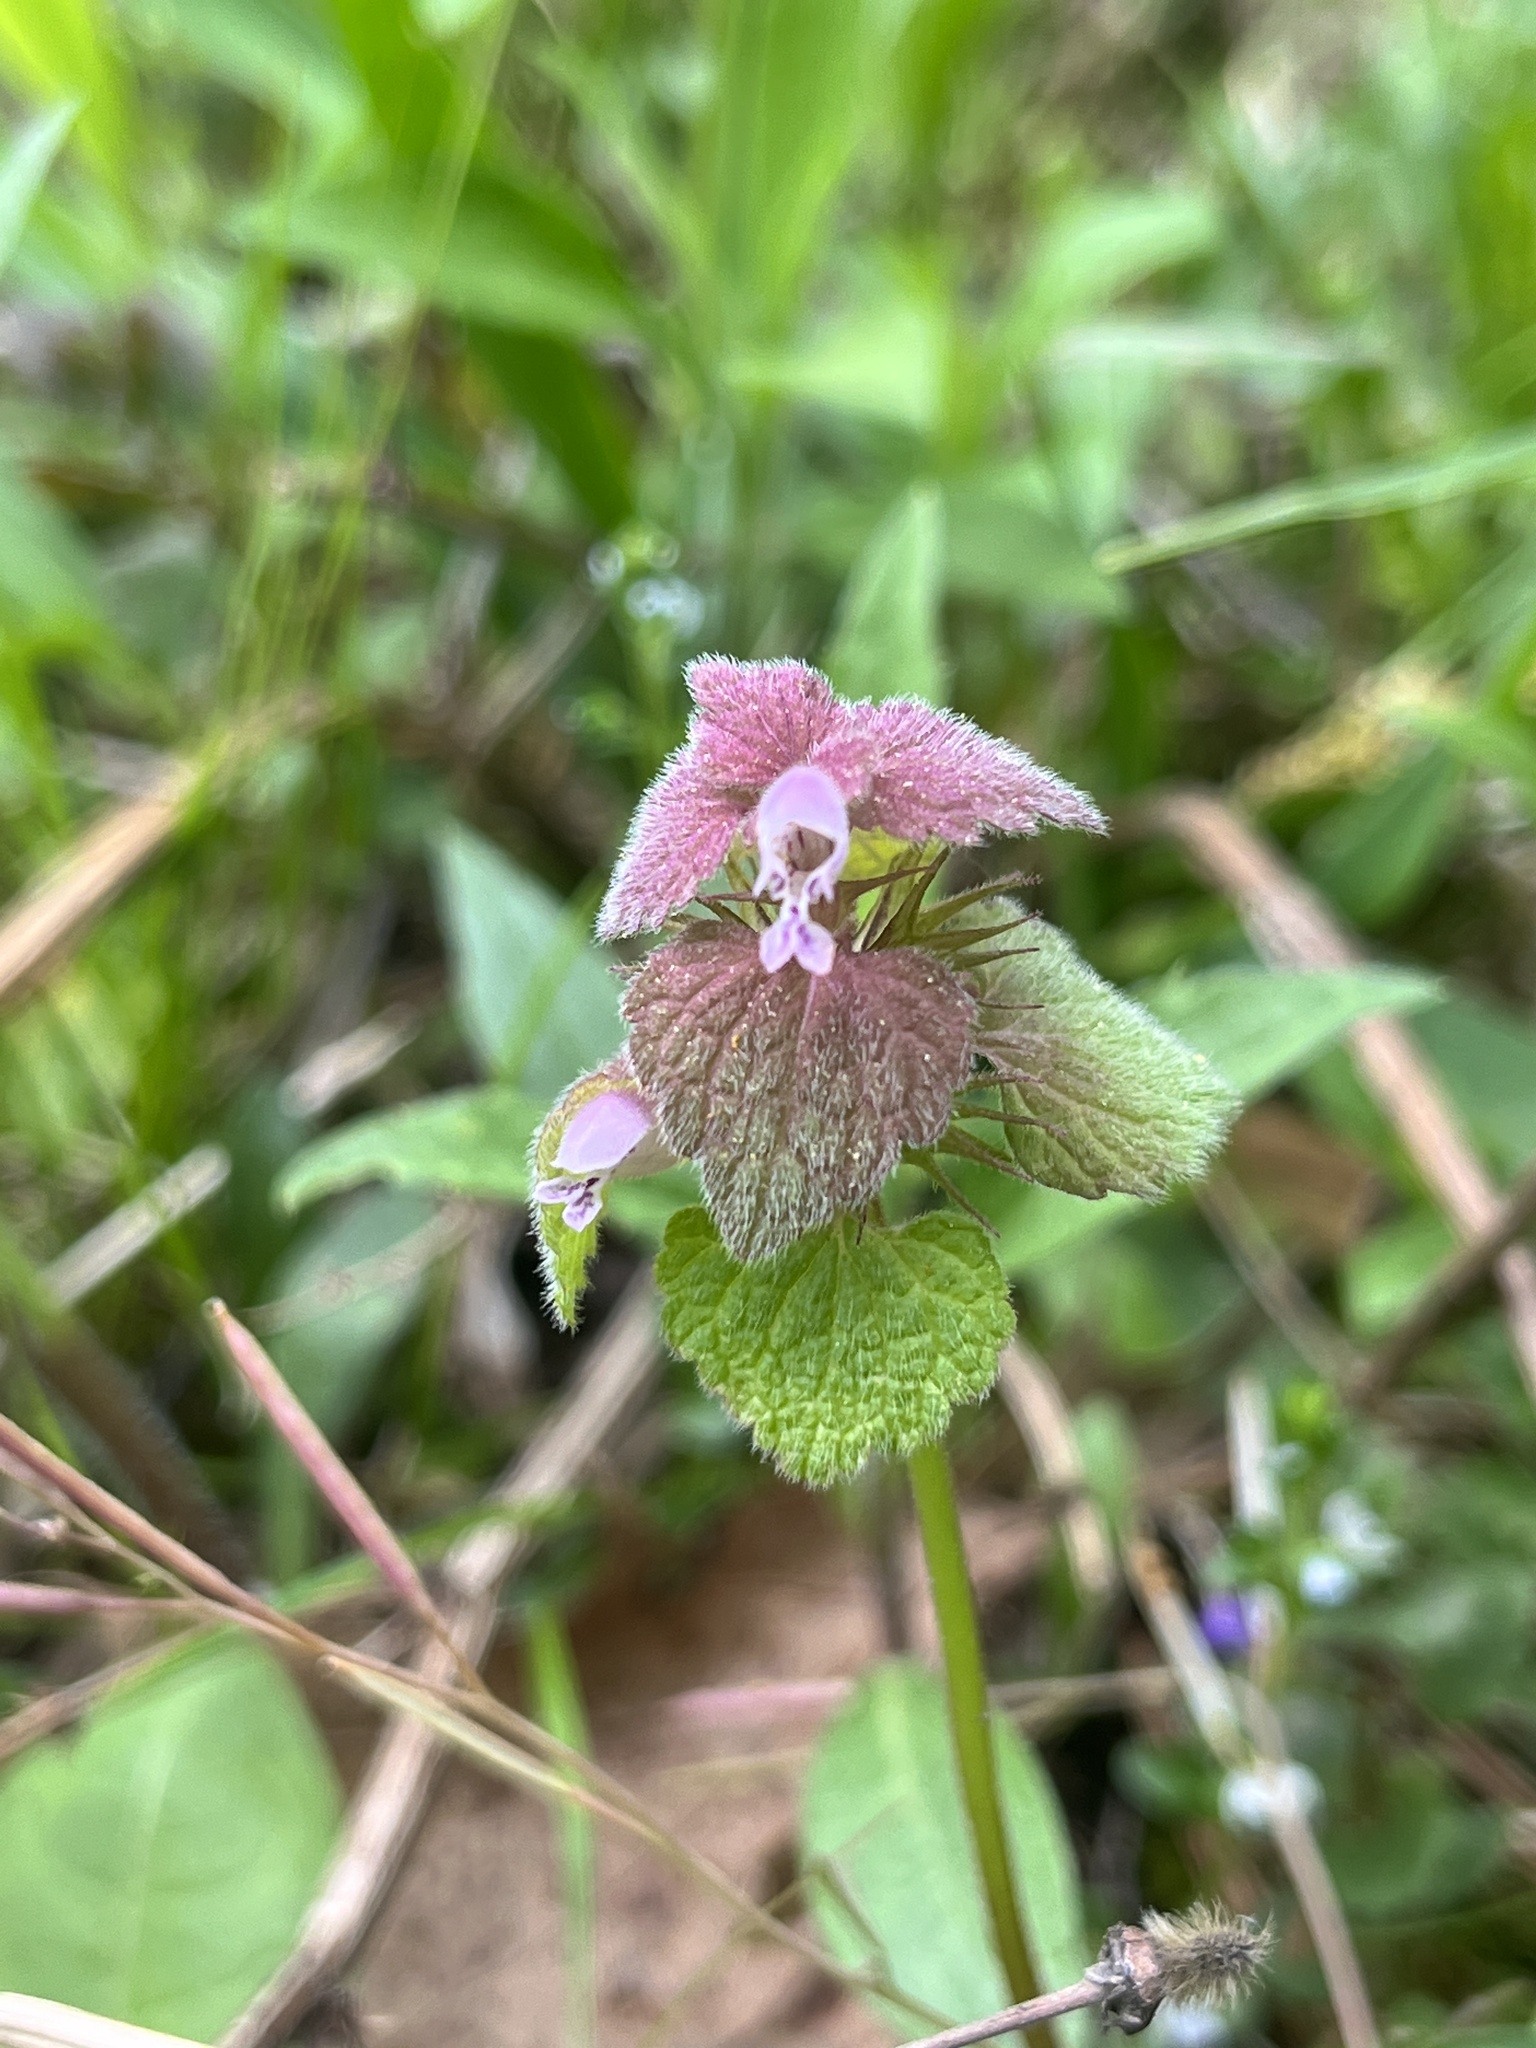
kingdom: Plantae
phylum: Tracheophyta
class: Magnoliopsida
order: Lamiales
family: Lamiaceae
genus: Lamium
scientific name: Lamium purpureum
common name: Red dead-nettle
